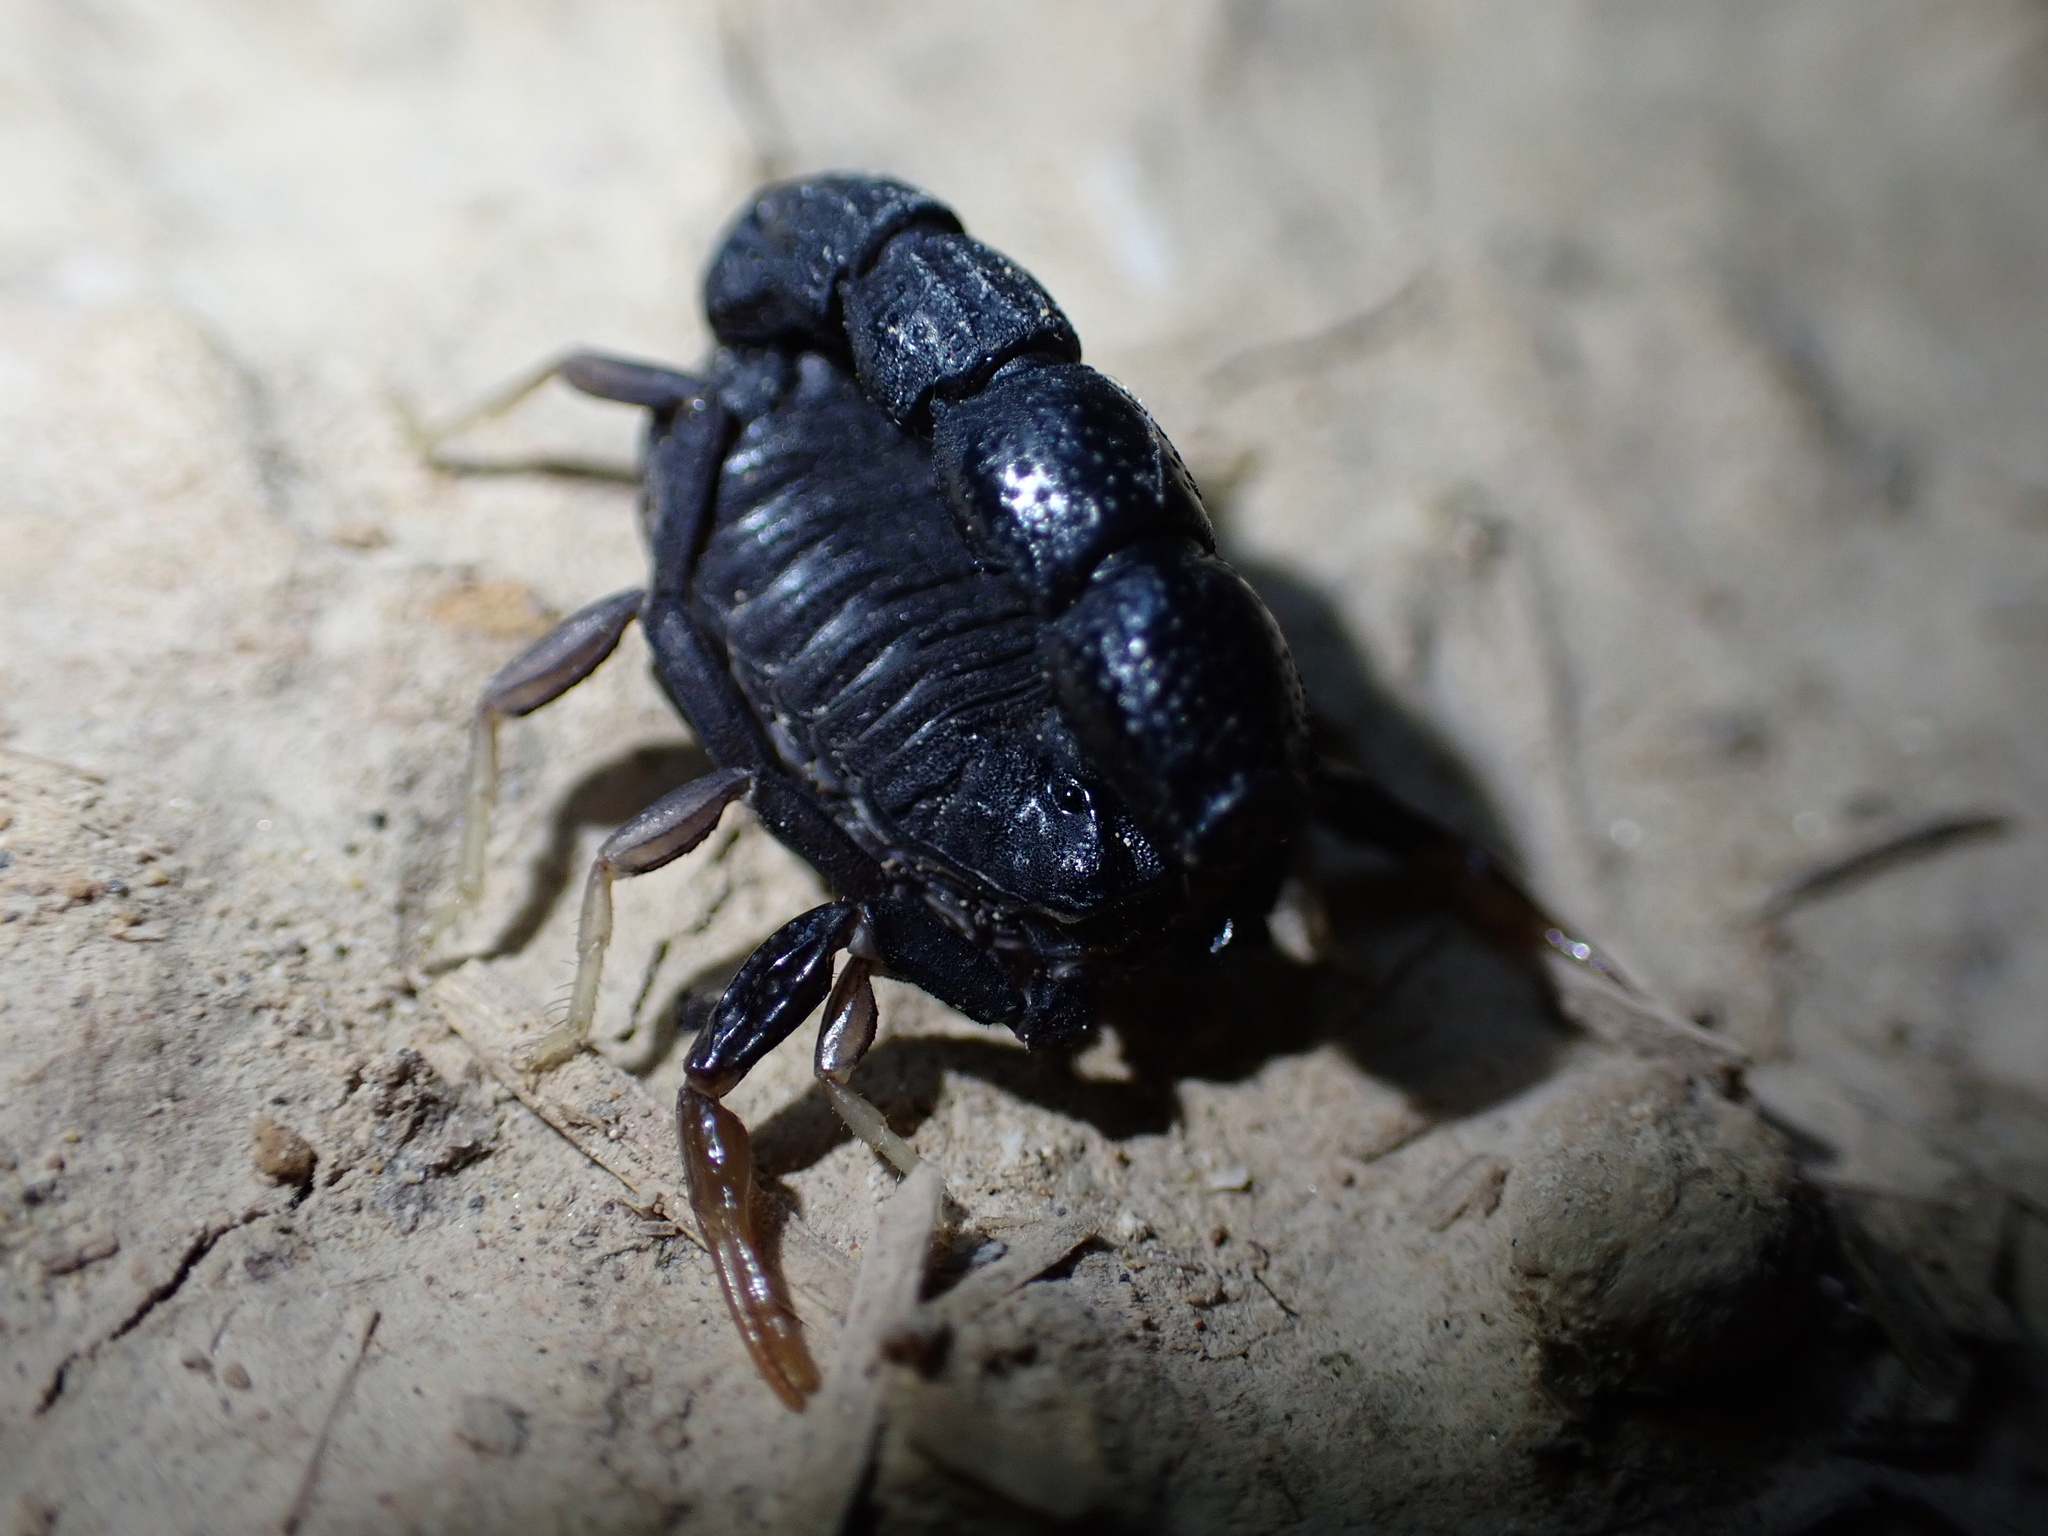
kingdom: Animalia
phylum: Arthropoda
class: Arachnida
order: Scorpiones
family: Buthidae
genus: Orthochirus
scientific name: Orthochirus mesopotamicus
